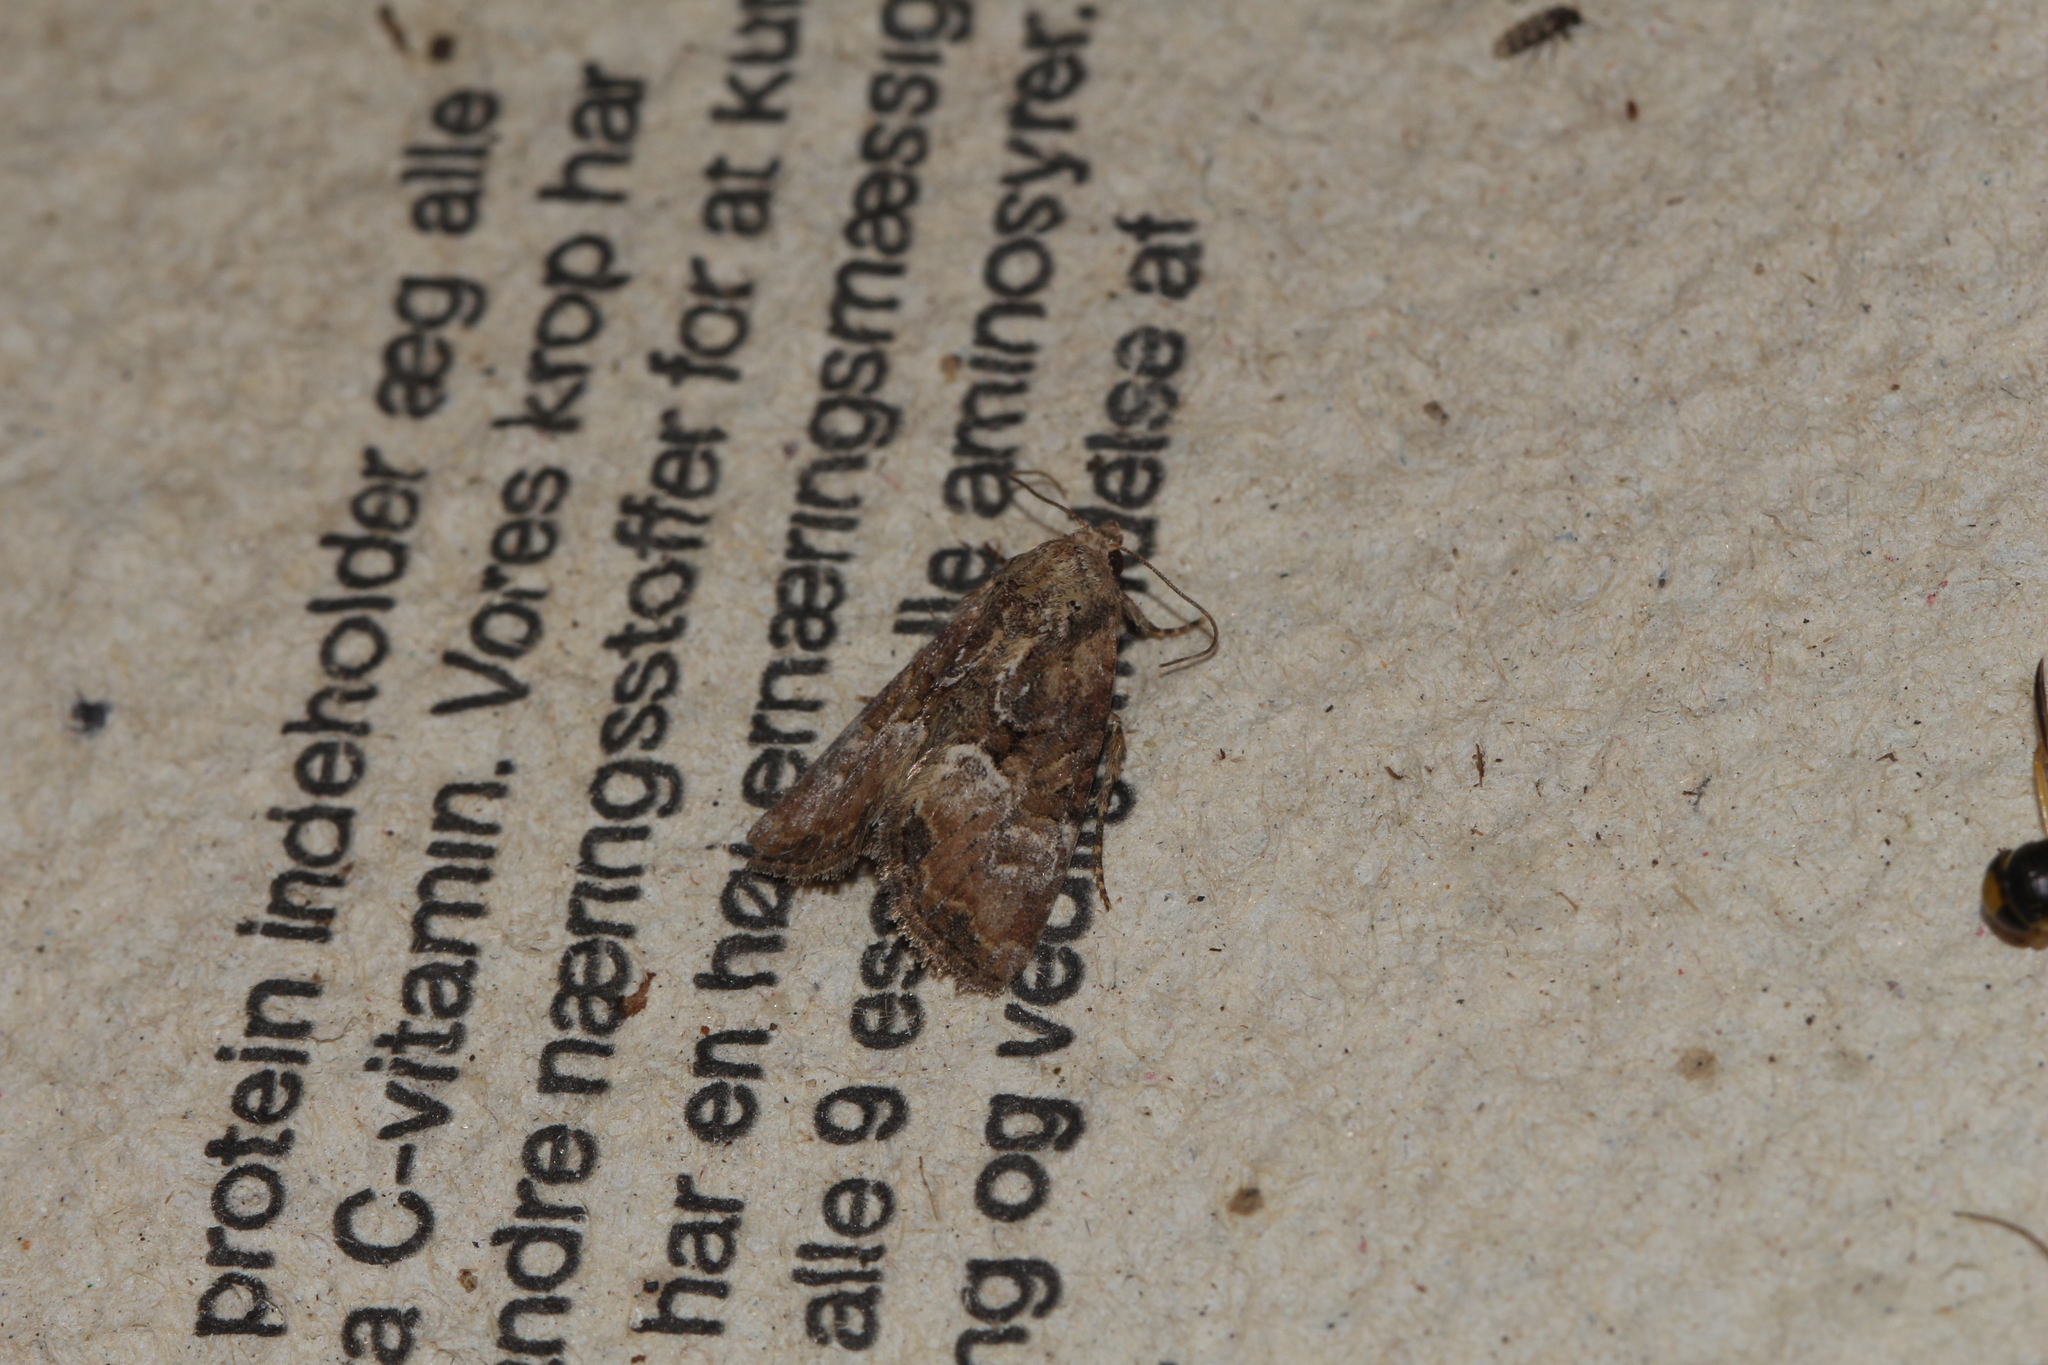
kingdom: Animalia
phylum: Arthropoda
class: Insecta
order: Lepidoptera
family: Noctuidae
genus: Mesoligia
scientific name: Mesoligia furuncula
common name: Cloaked minor
